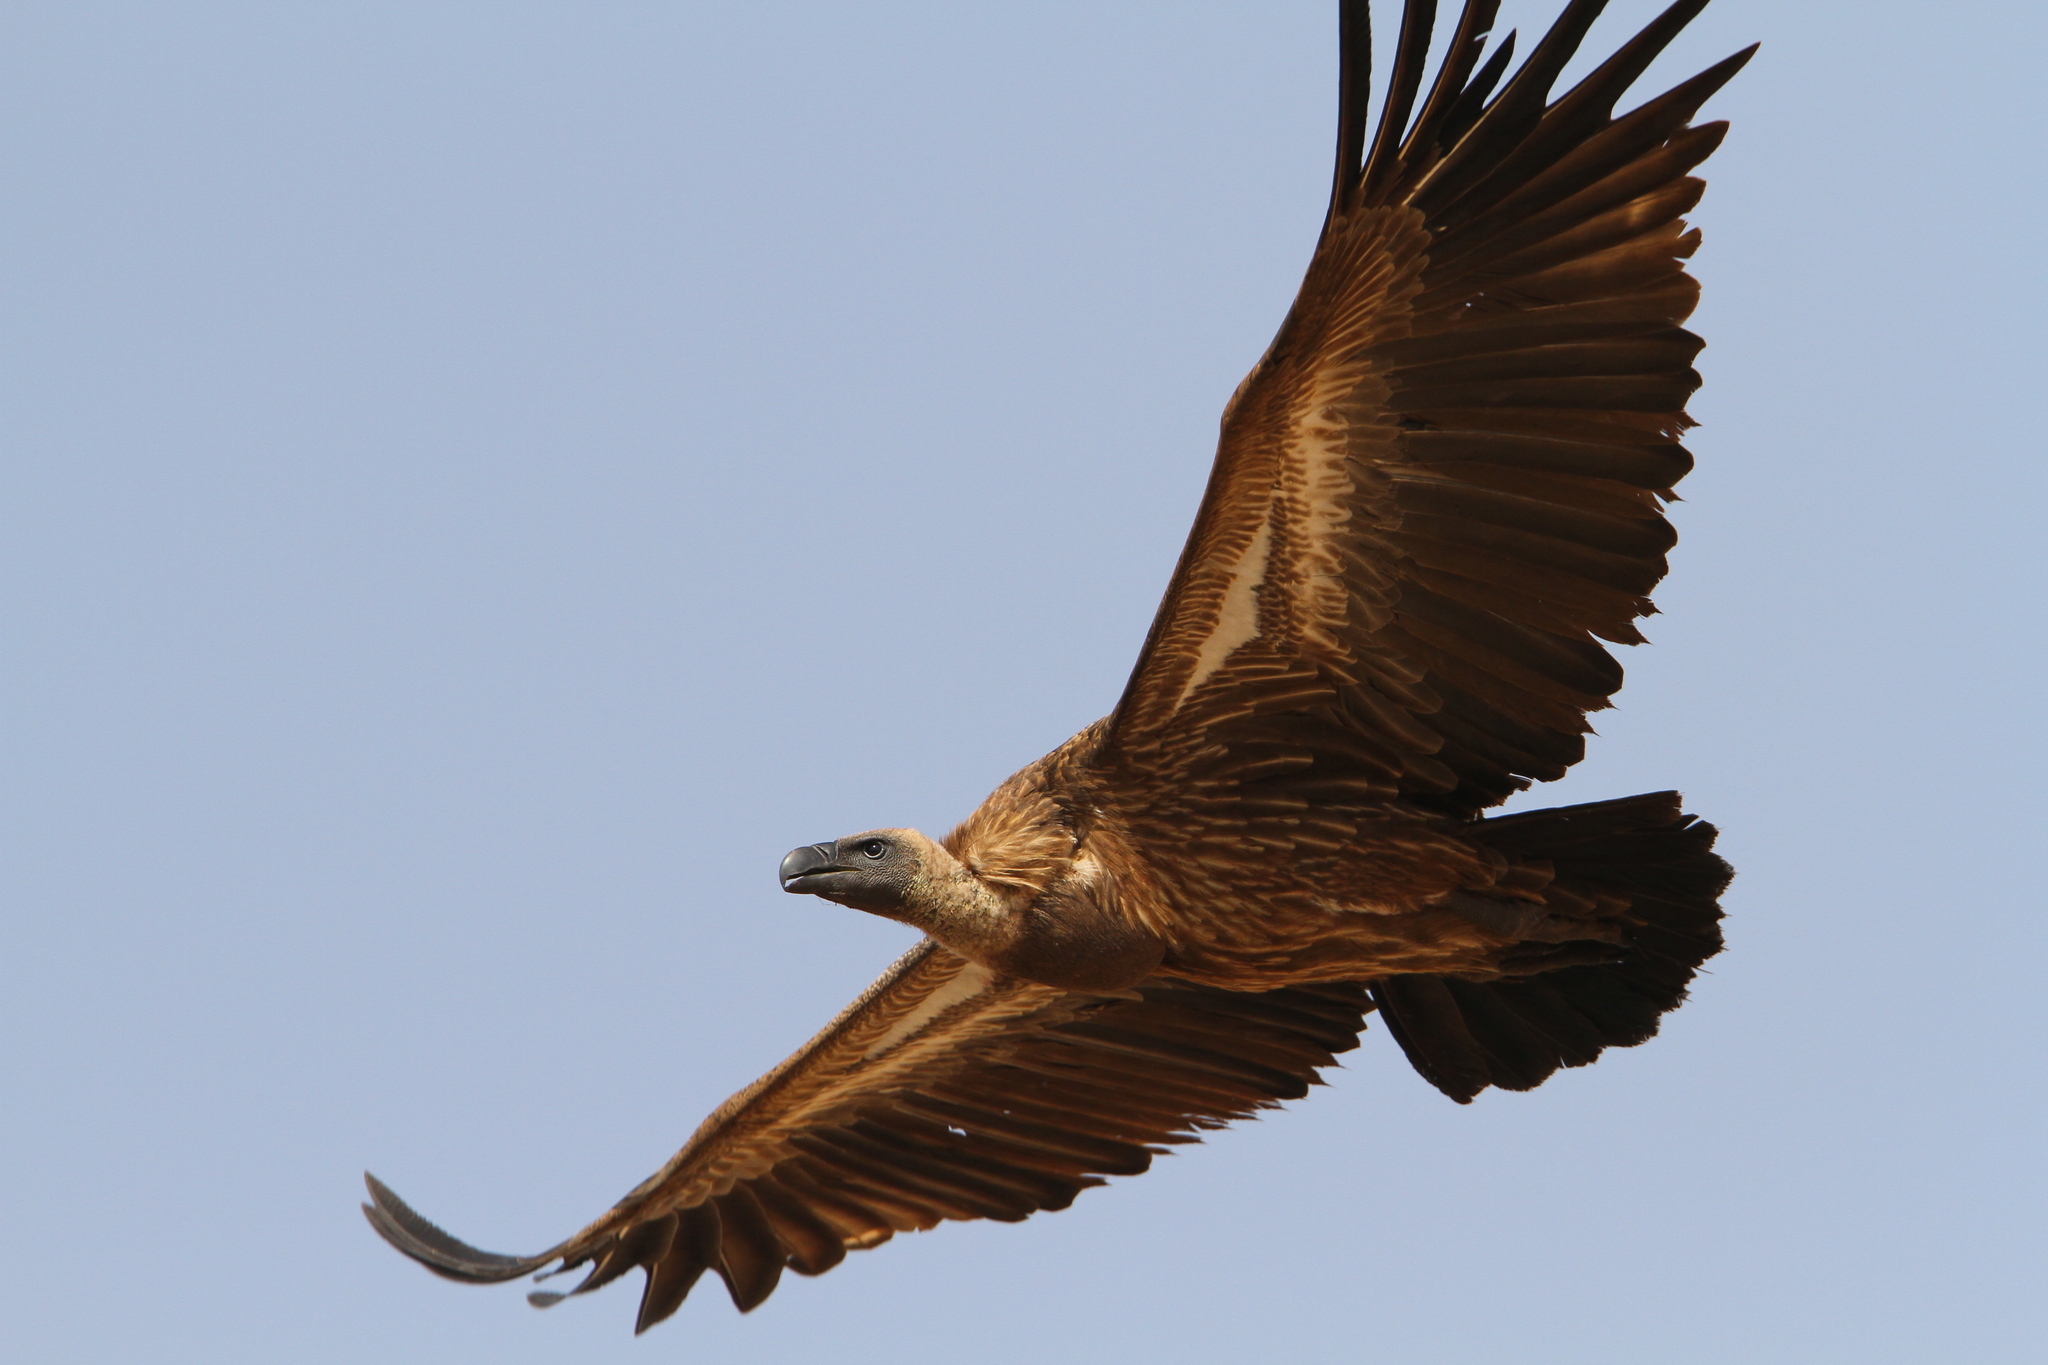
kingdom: Animalia
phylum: Chordata
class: Aves
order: Accipitriformes
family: Accipitridae
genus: Gyps
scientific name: Gyps rueppellii
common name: Rüppell's vulture
